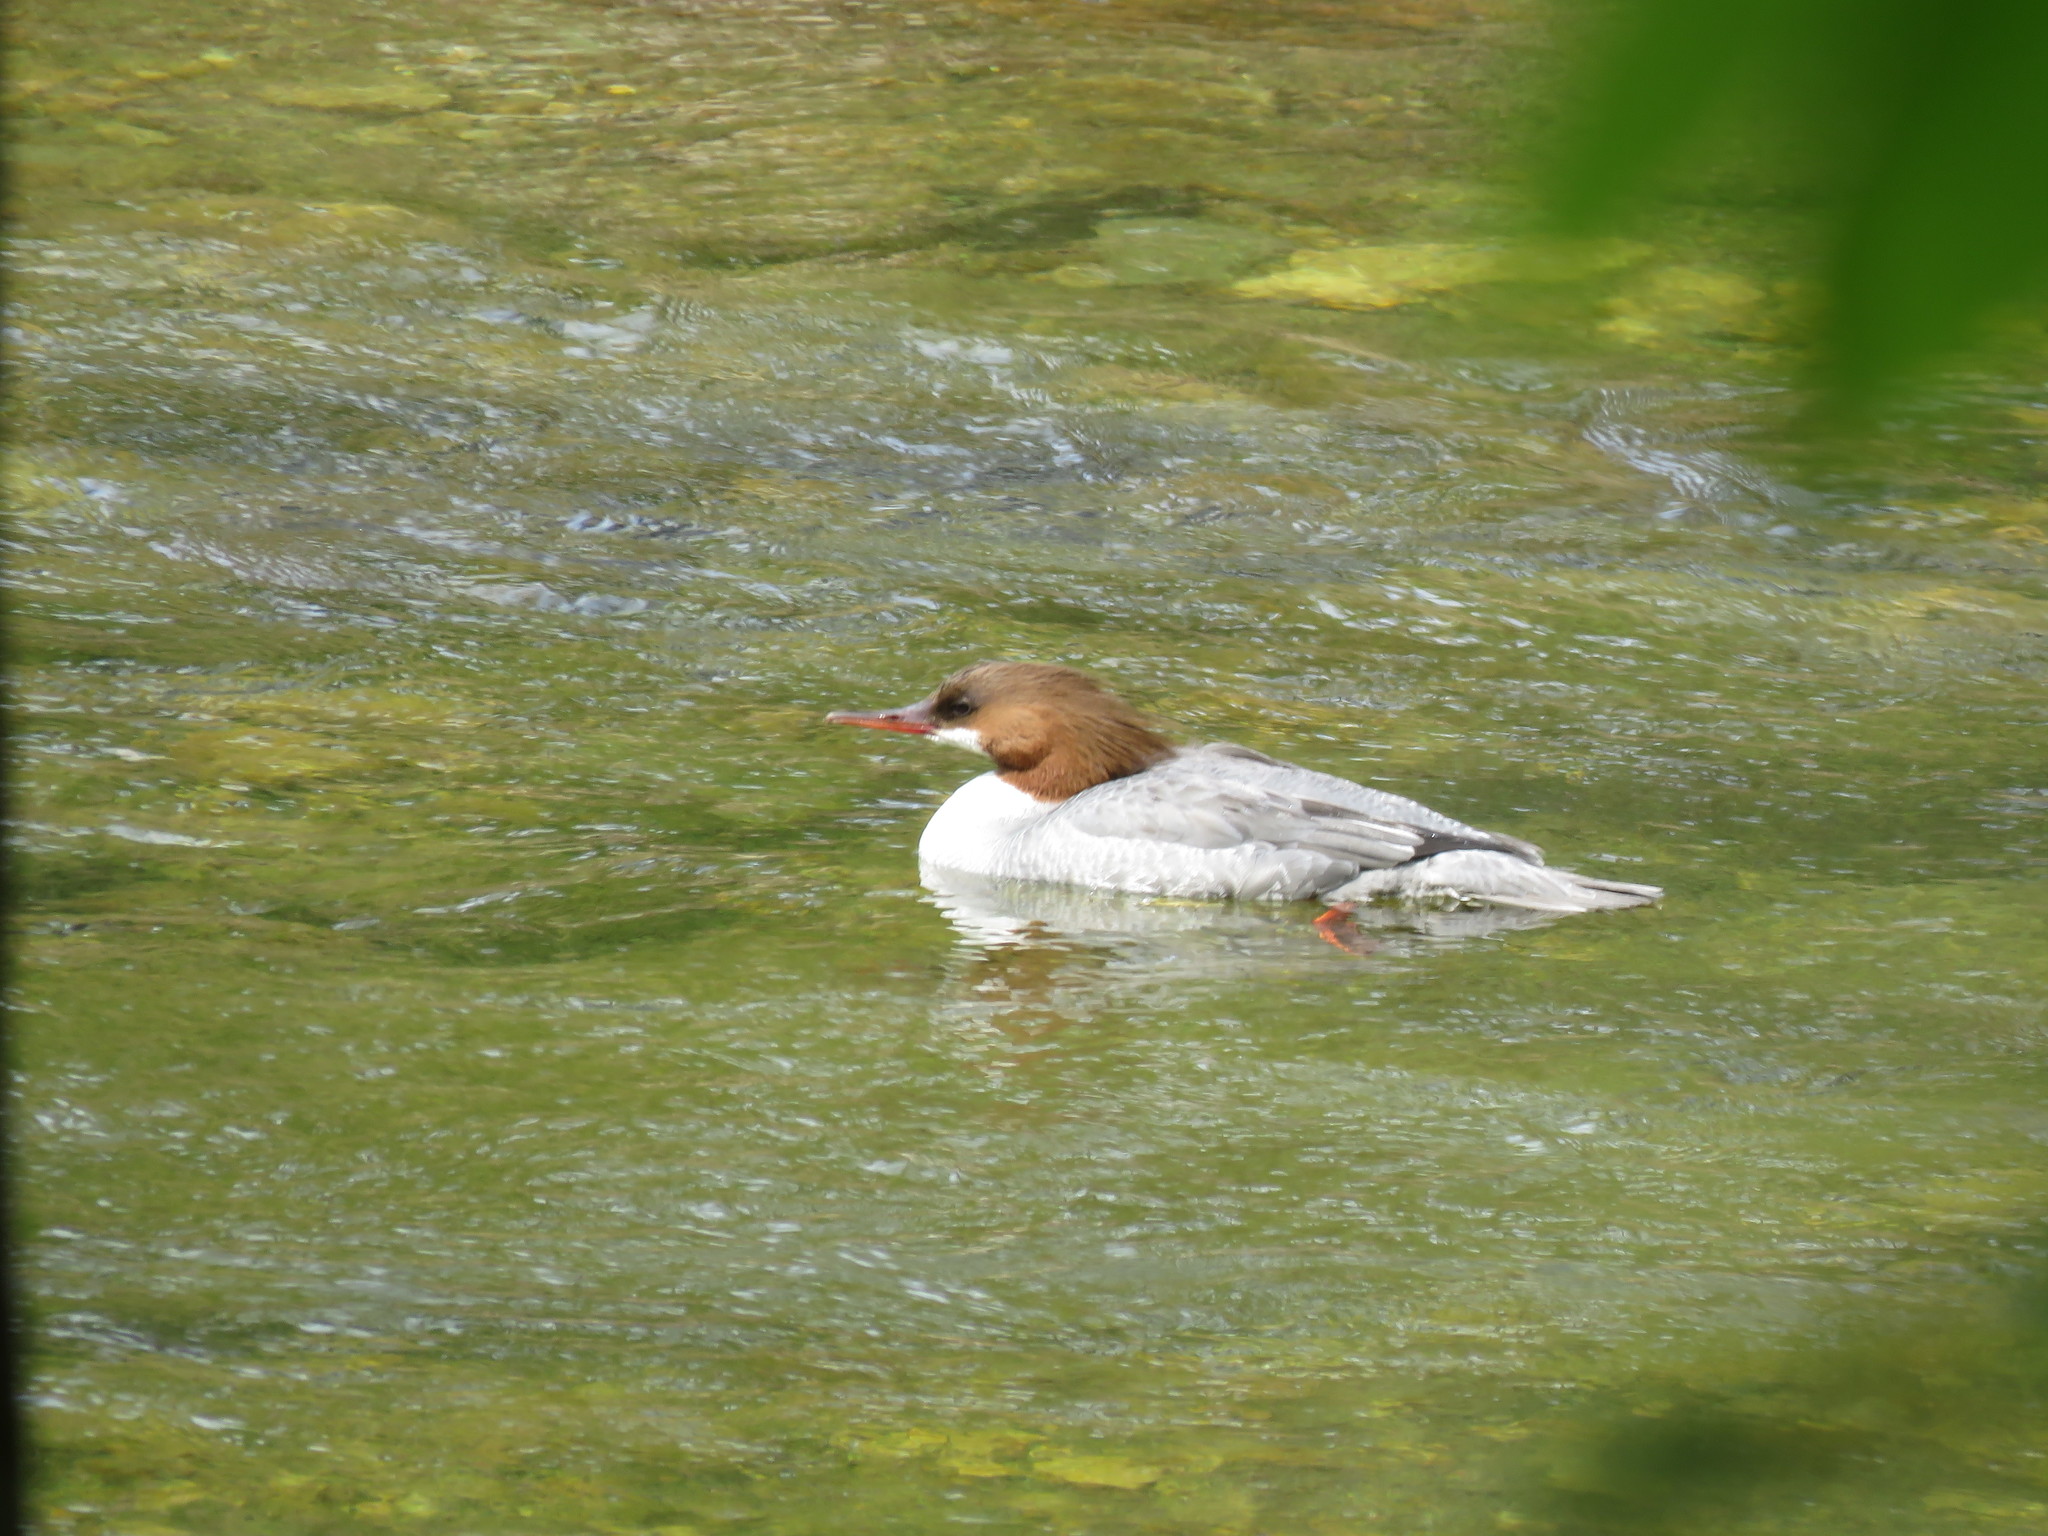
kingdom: Animalia
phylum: Chordata
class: Aves
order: Anseriformes
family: Anatidae
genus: Mergus
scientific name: Mergus merganser
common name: Common merganser
